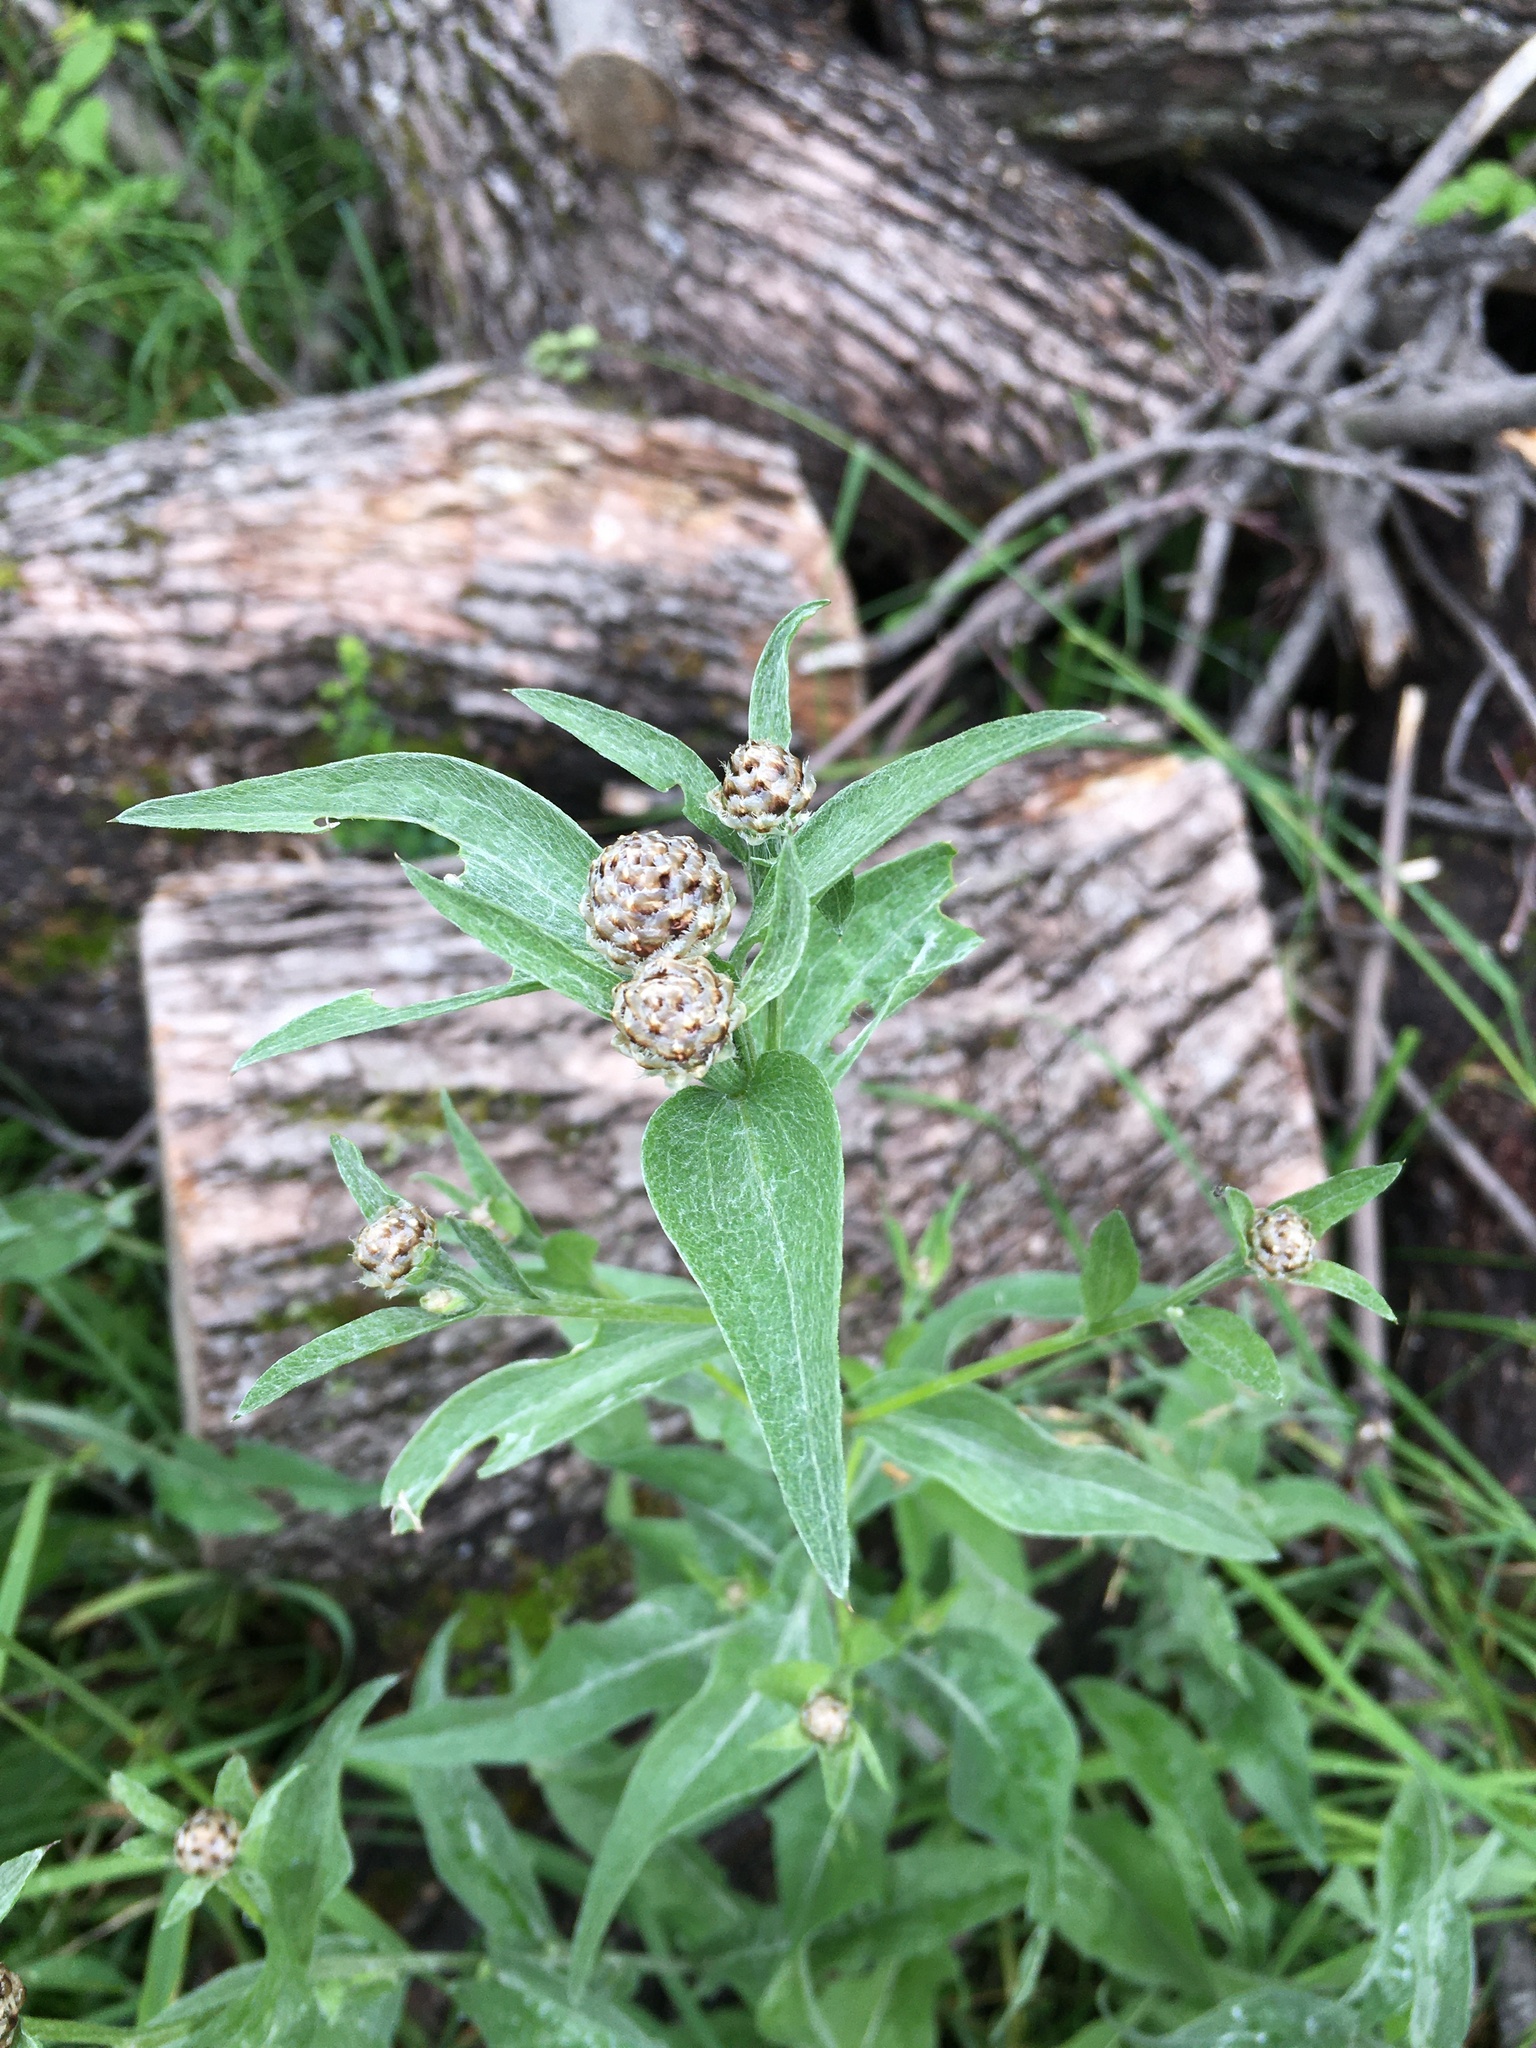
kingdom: Plantae
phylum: Tracheophyta
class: Magnoliopsida
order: Asterales
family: Asteraceae
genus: Centaurea
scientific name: Centaurea jacea
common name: Brown knapweed
